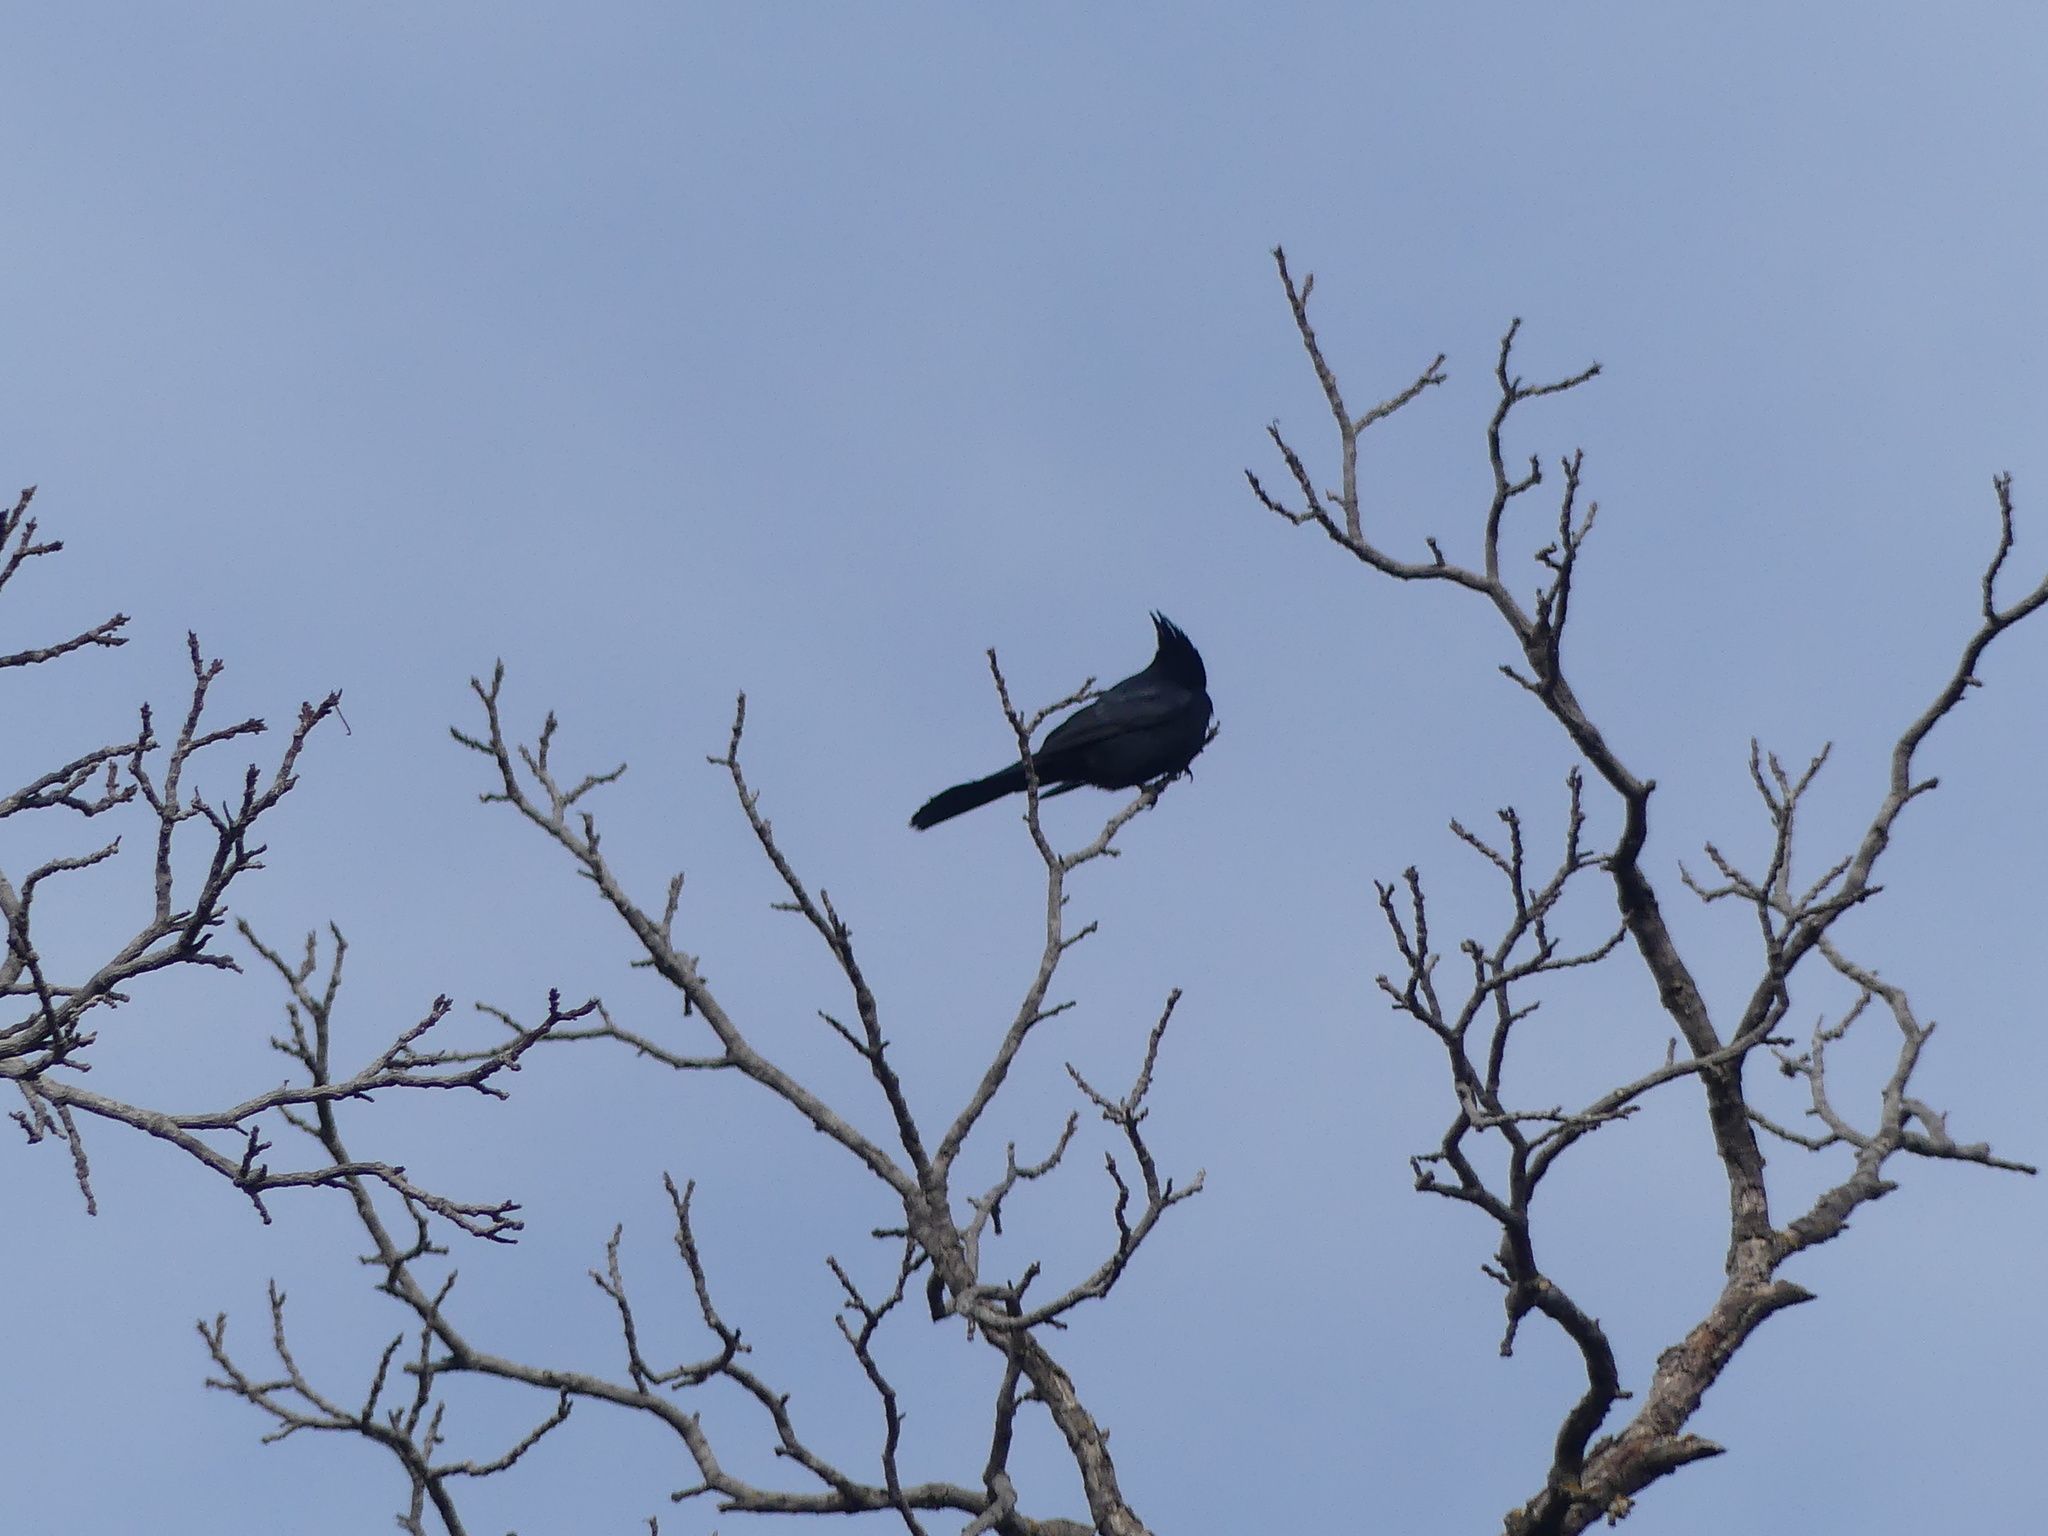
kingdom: Animalia
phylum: Chordata
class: Aves
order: Passeriformes
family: Ptilogonatidae
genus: Phainopepla
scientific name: Phainopepla nitens
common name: Phainopepla
